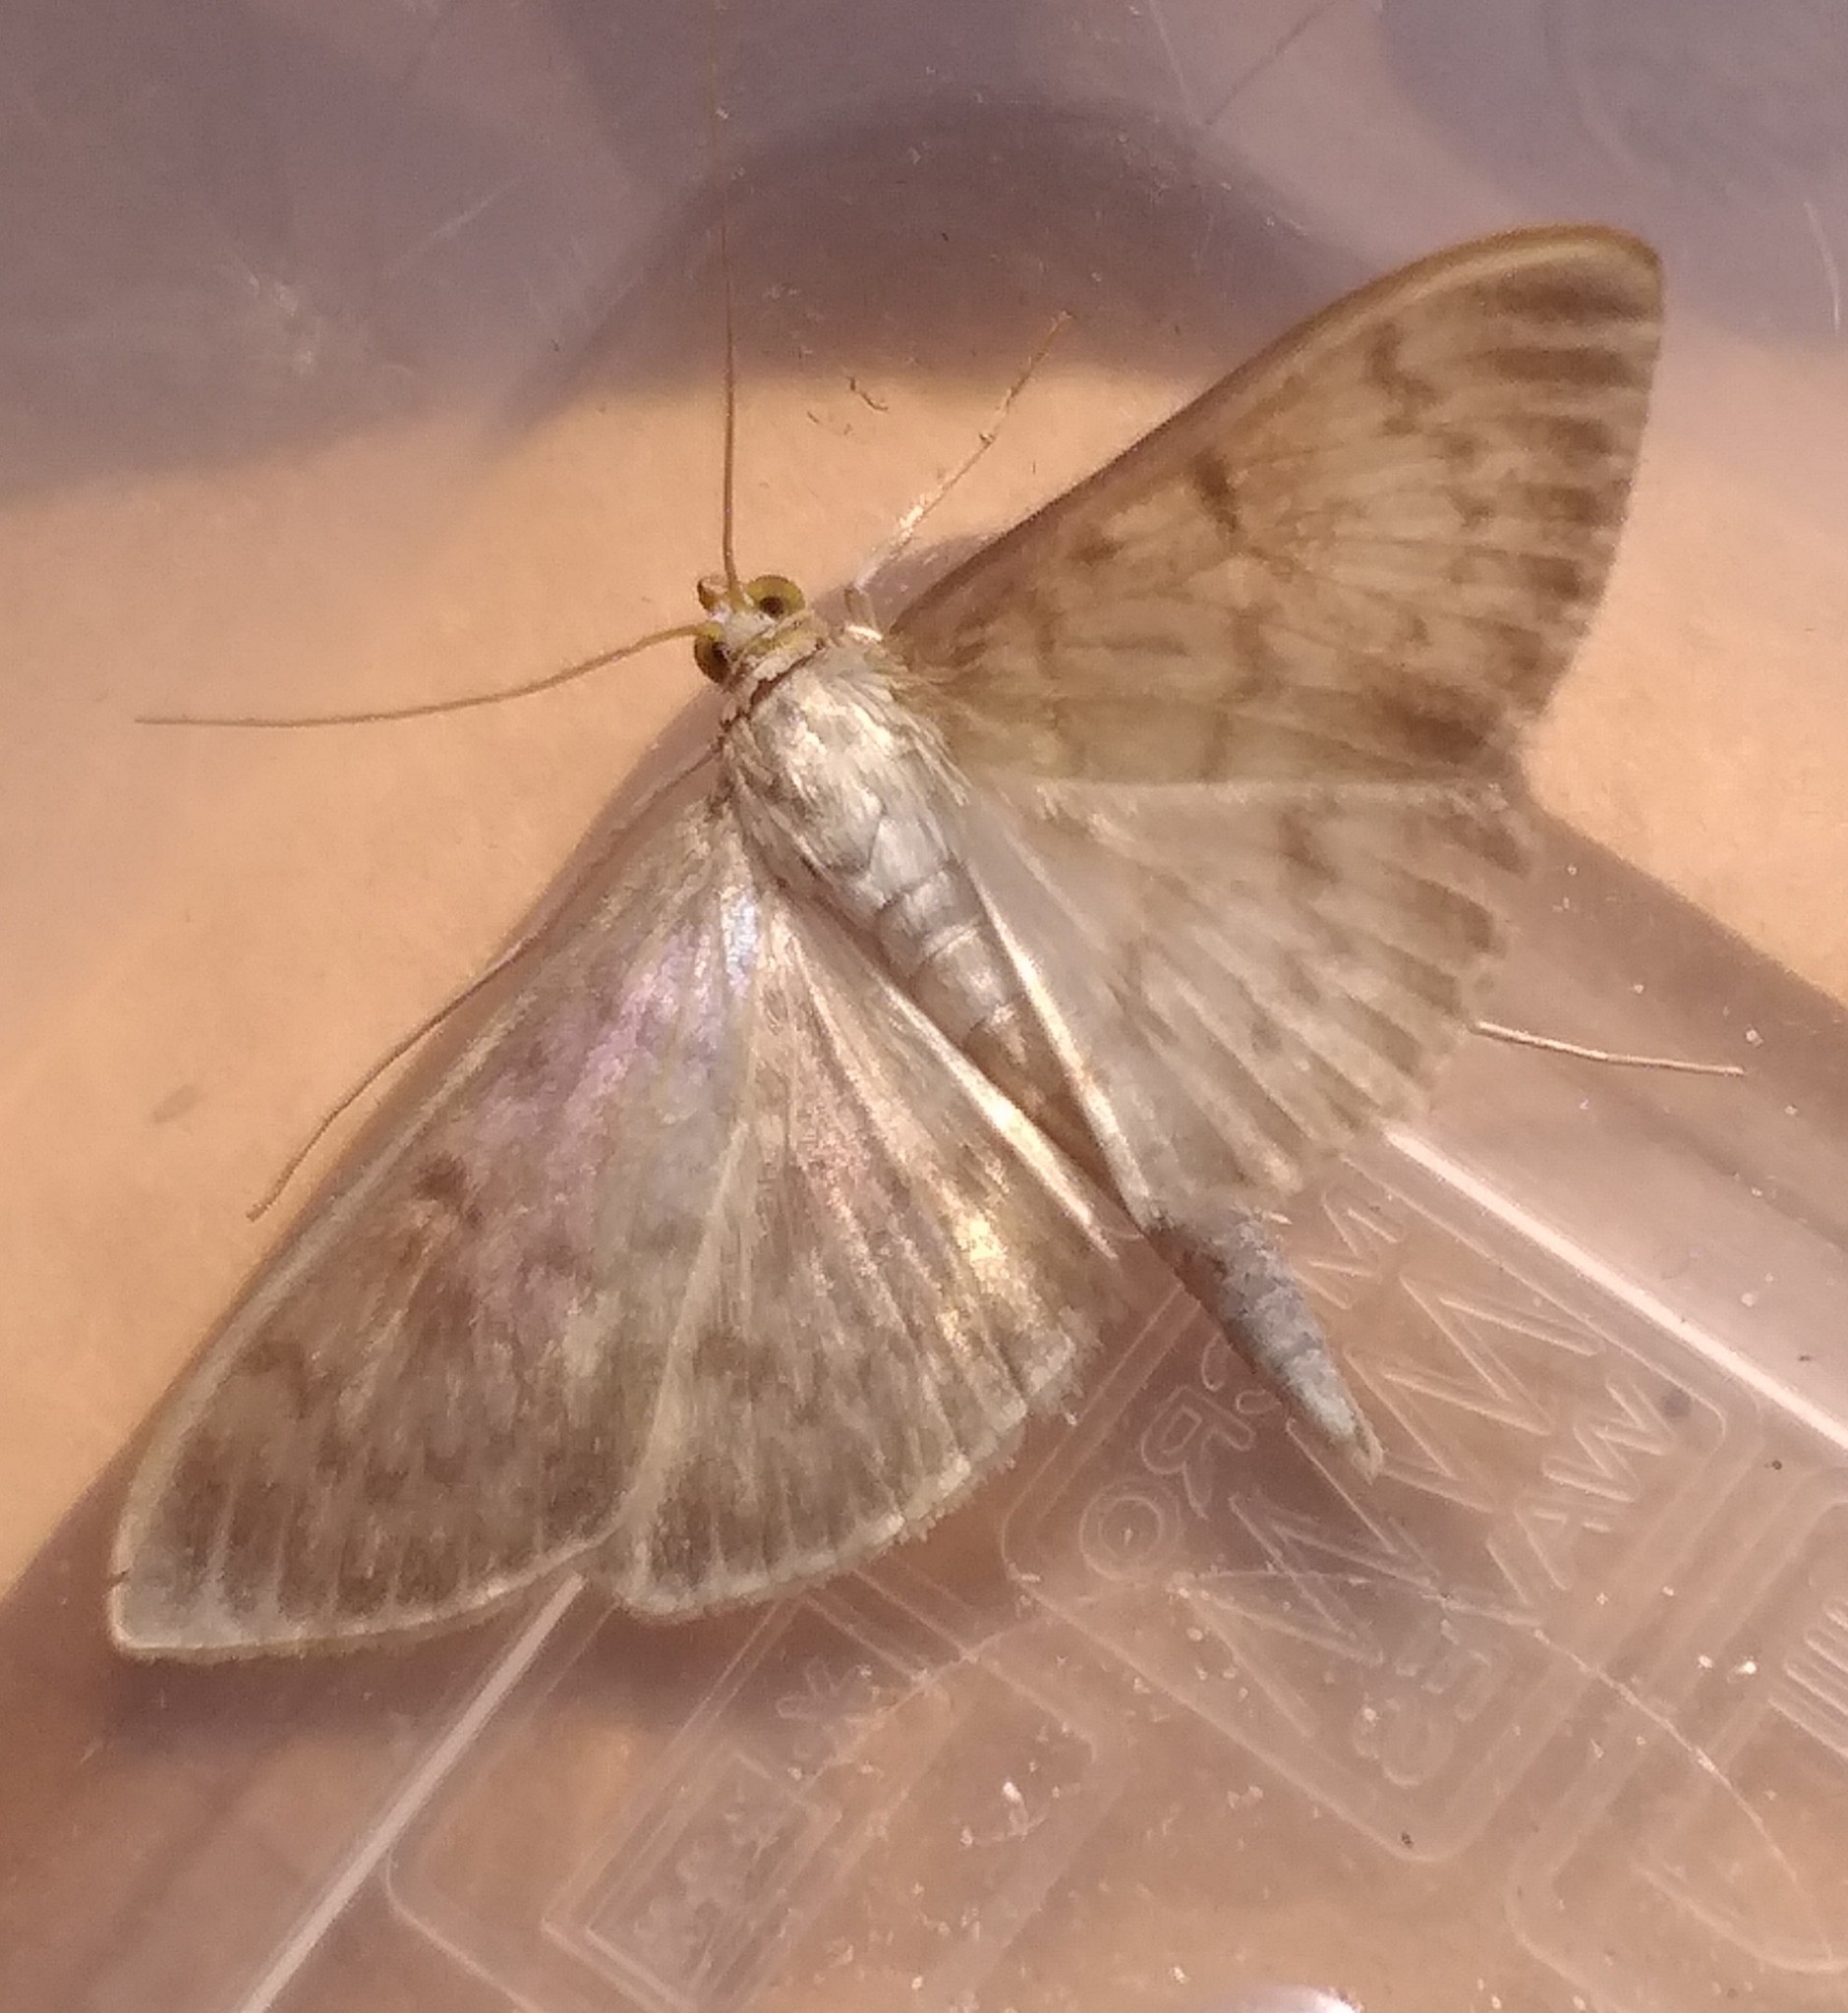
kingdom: Animalia
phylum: Arthropoda
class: Insecta
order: Lepidoptera
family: Crambidae
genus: Patania
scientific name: Patania ruralis
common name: Mother of pearl
